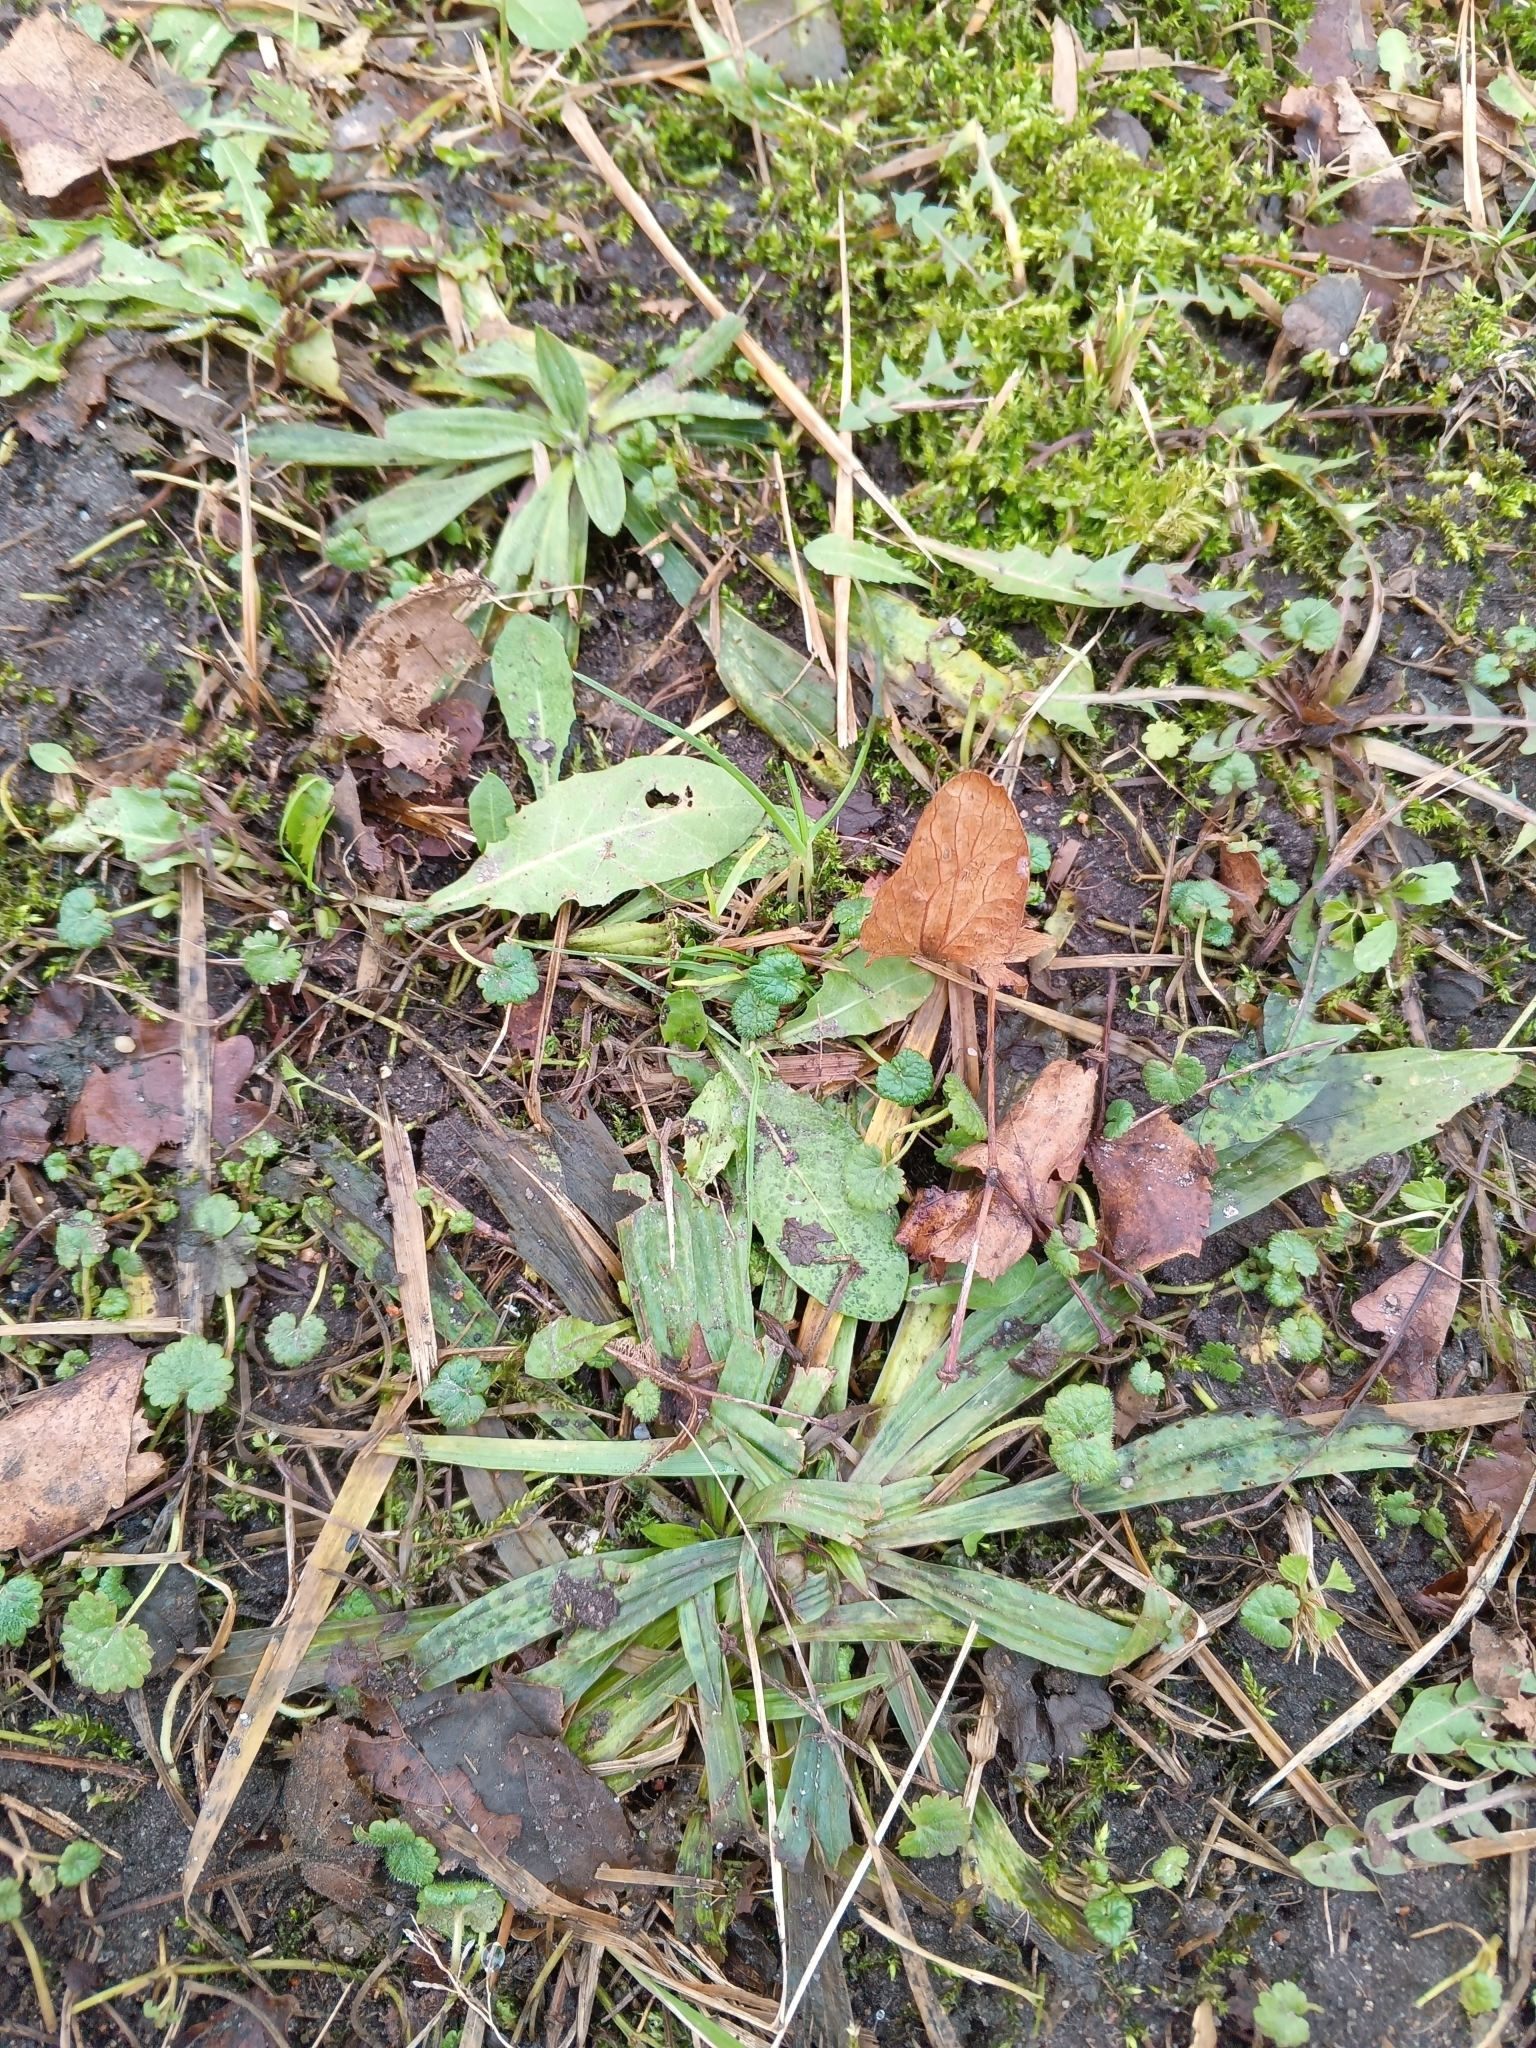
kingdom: Plantae
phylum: Tracheophyta
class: Magnoliopsida
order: Lamiales
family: Plantaginaceae
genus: Plantago
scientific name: Plantago lanceolata
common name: Ribwort plantain
